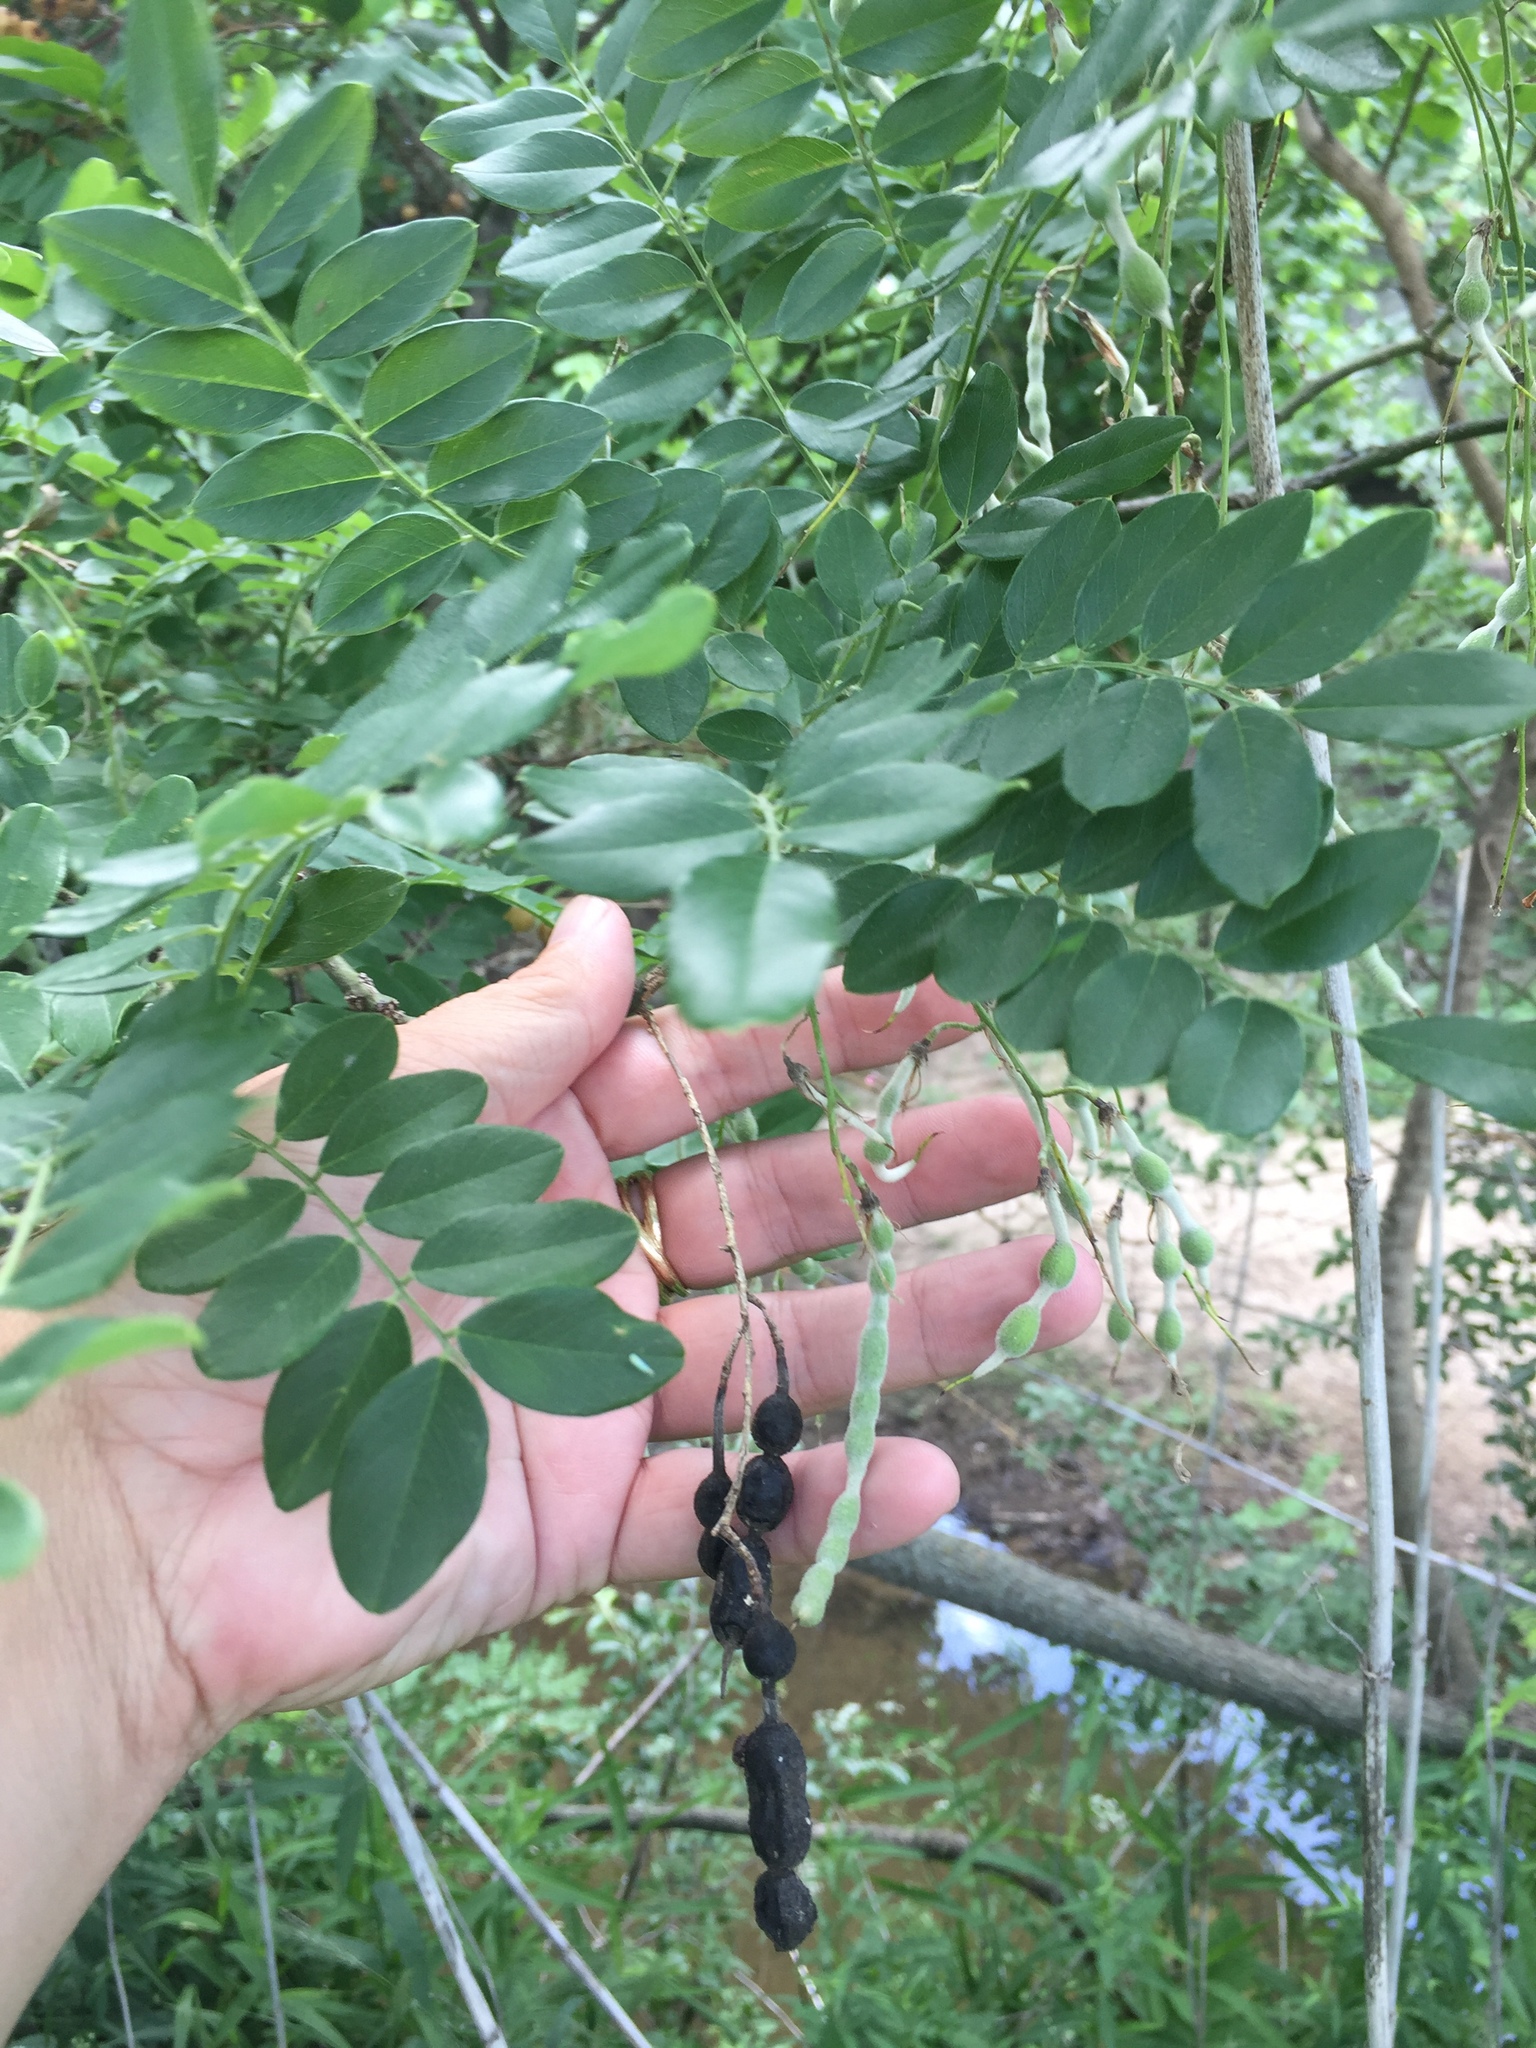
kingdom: Plantae
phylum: Tracheophyta
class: Magnoliopsida
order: Fabales
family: Fabaceae
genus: Styphnolobium
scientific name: Styphnolobium affine
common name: Texas sophora
